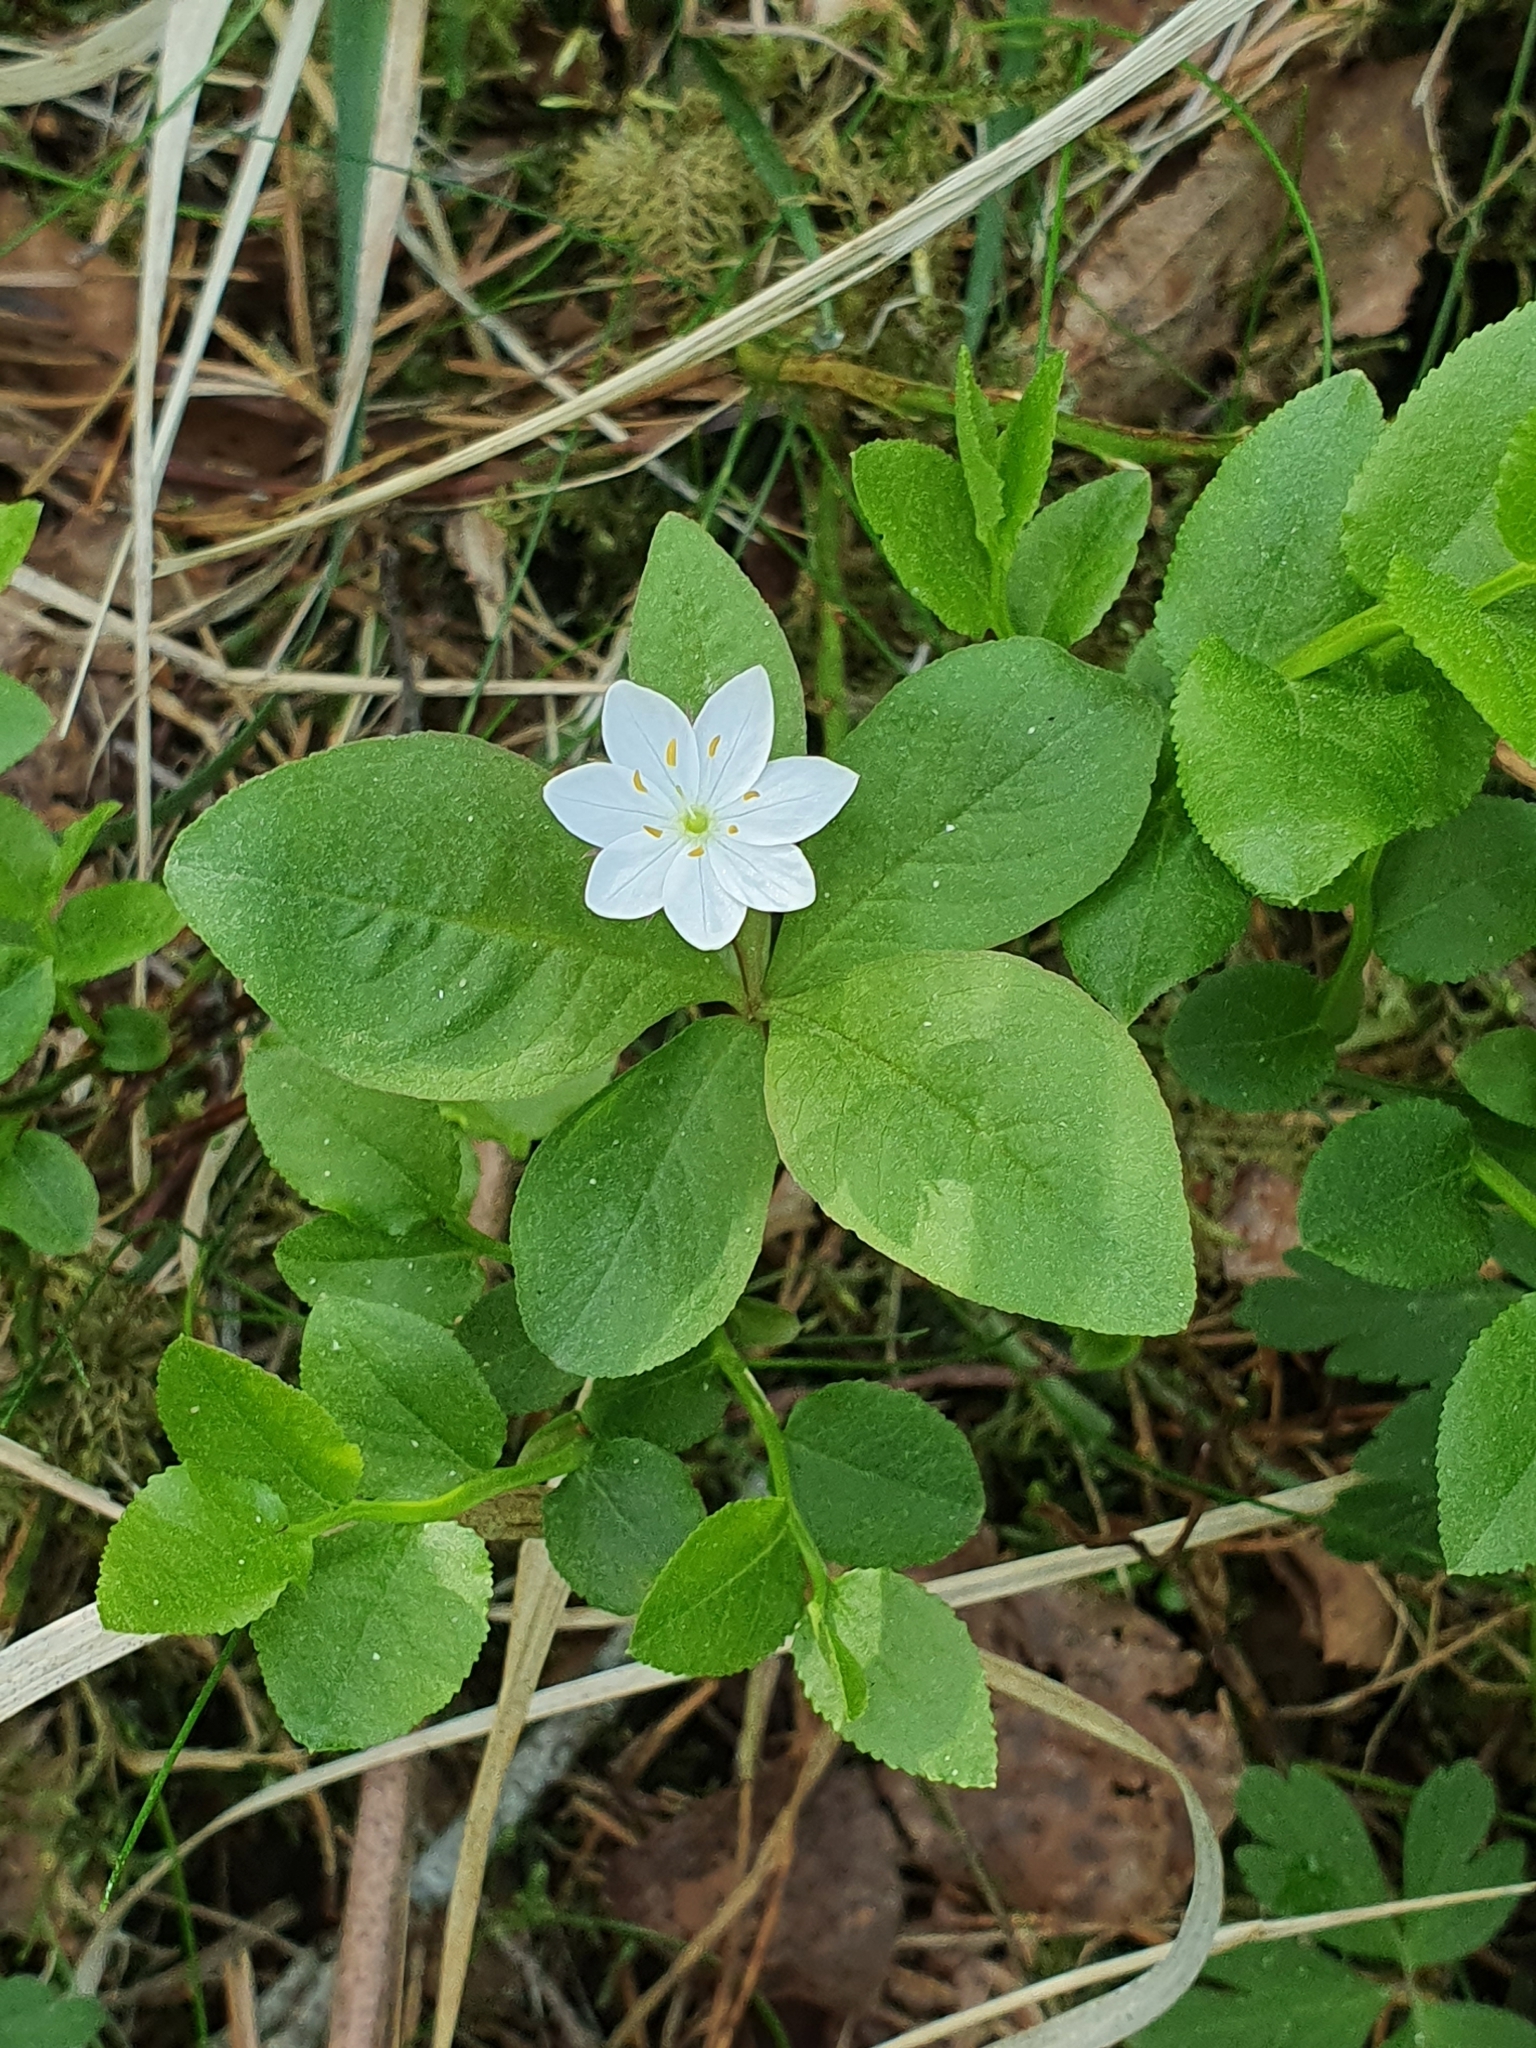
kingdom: Plantae
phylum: Tracheophyta
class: Magnoliopsida
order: Ericales
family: Primulaceae
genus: Lysimachia
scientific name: Lysimachia europaea
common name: Arctic starflower
